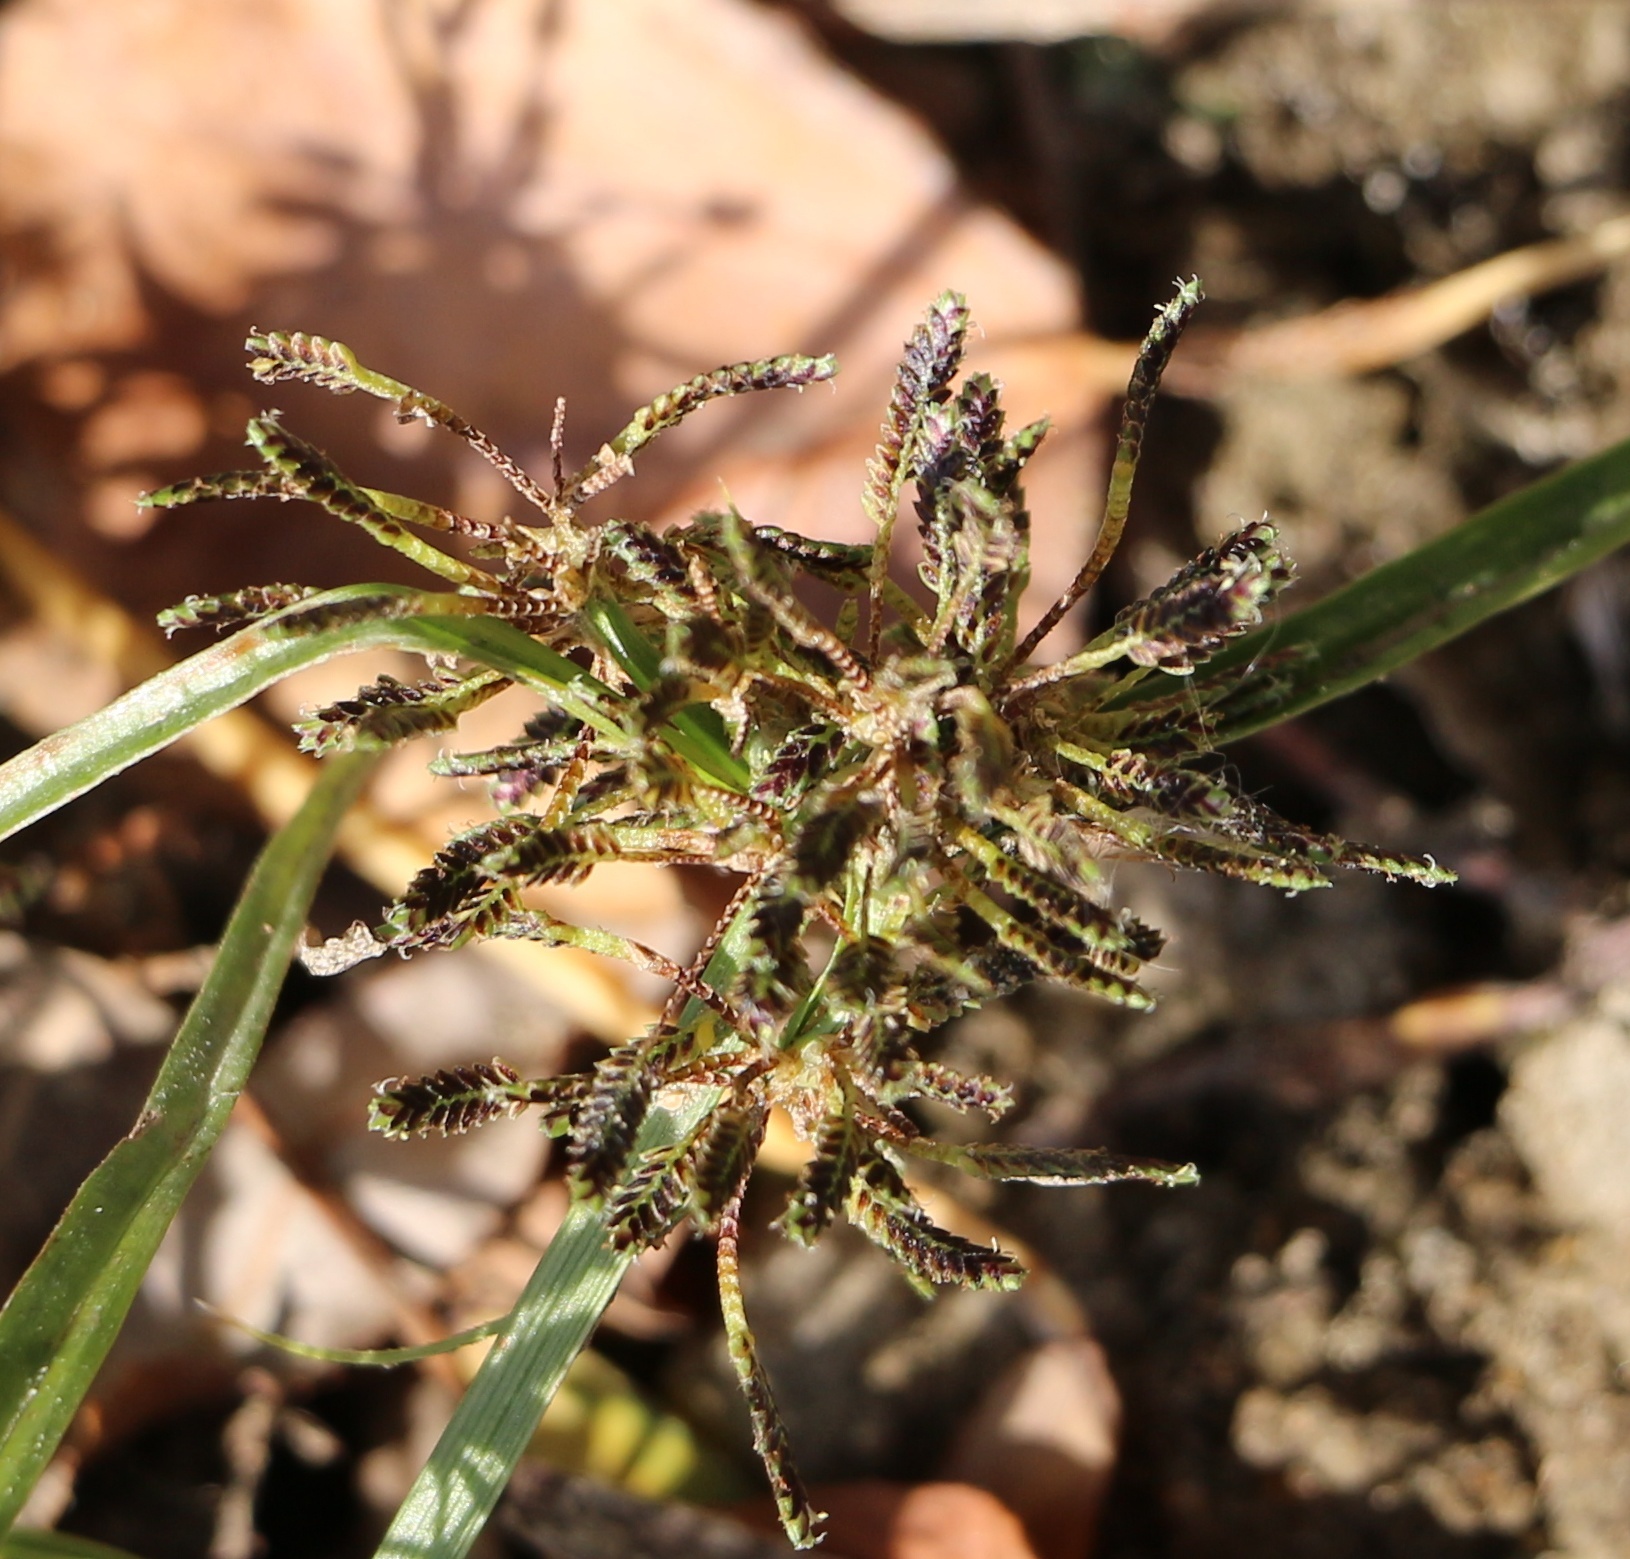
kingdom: Plantae
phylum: Tracheophyta
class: Liliopsida
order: Poales
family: Cyperaceae
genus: Cyperus
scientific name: Cyperus fuscus
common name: Brown galingale
